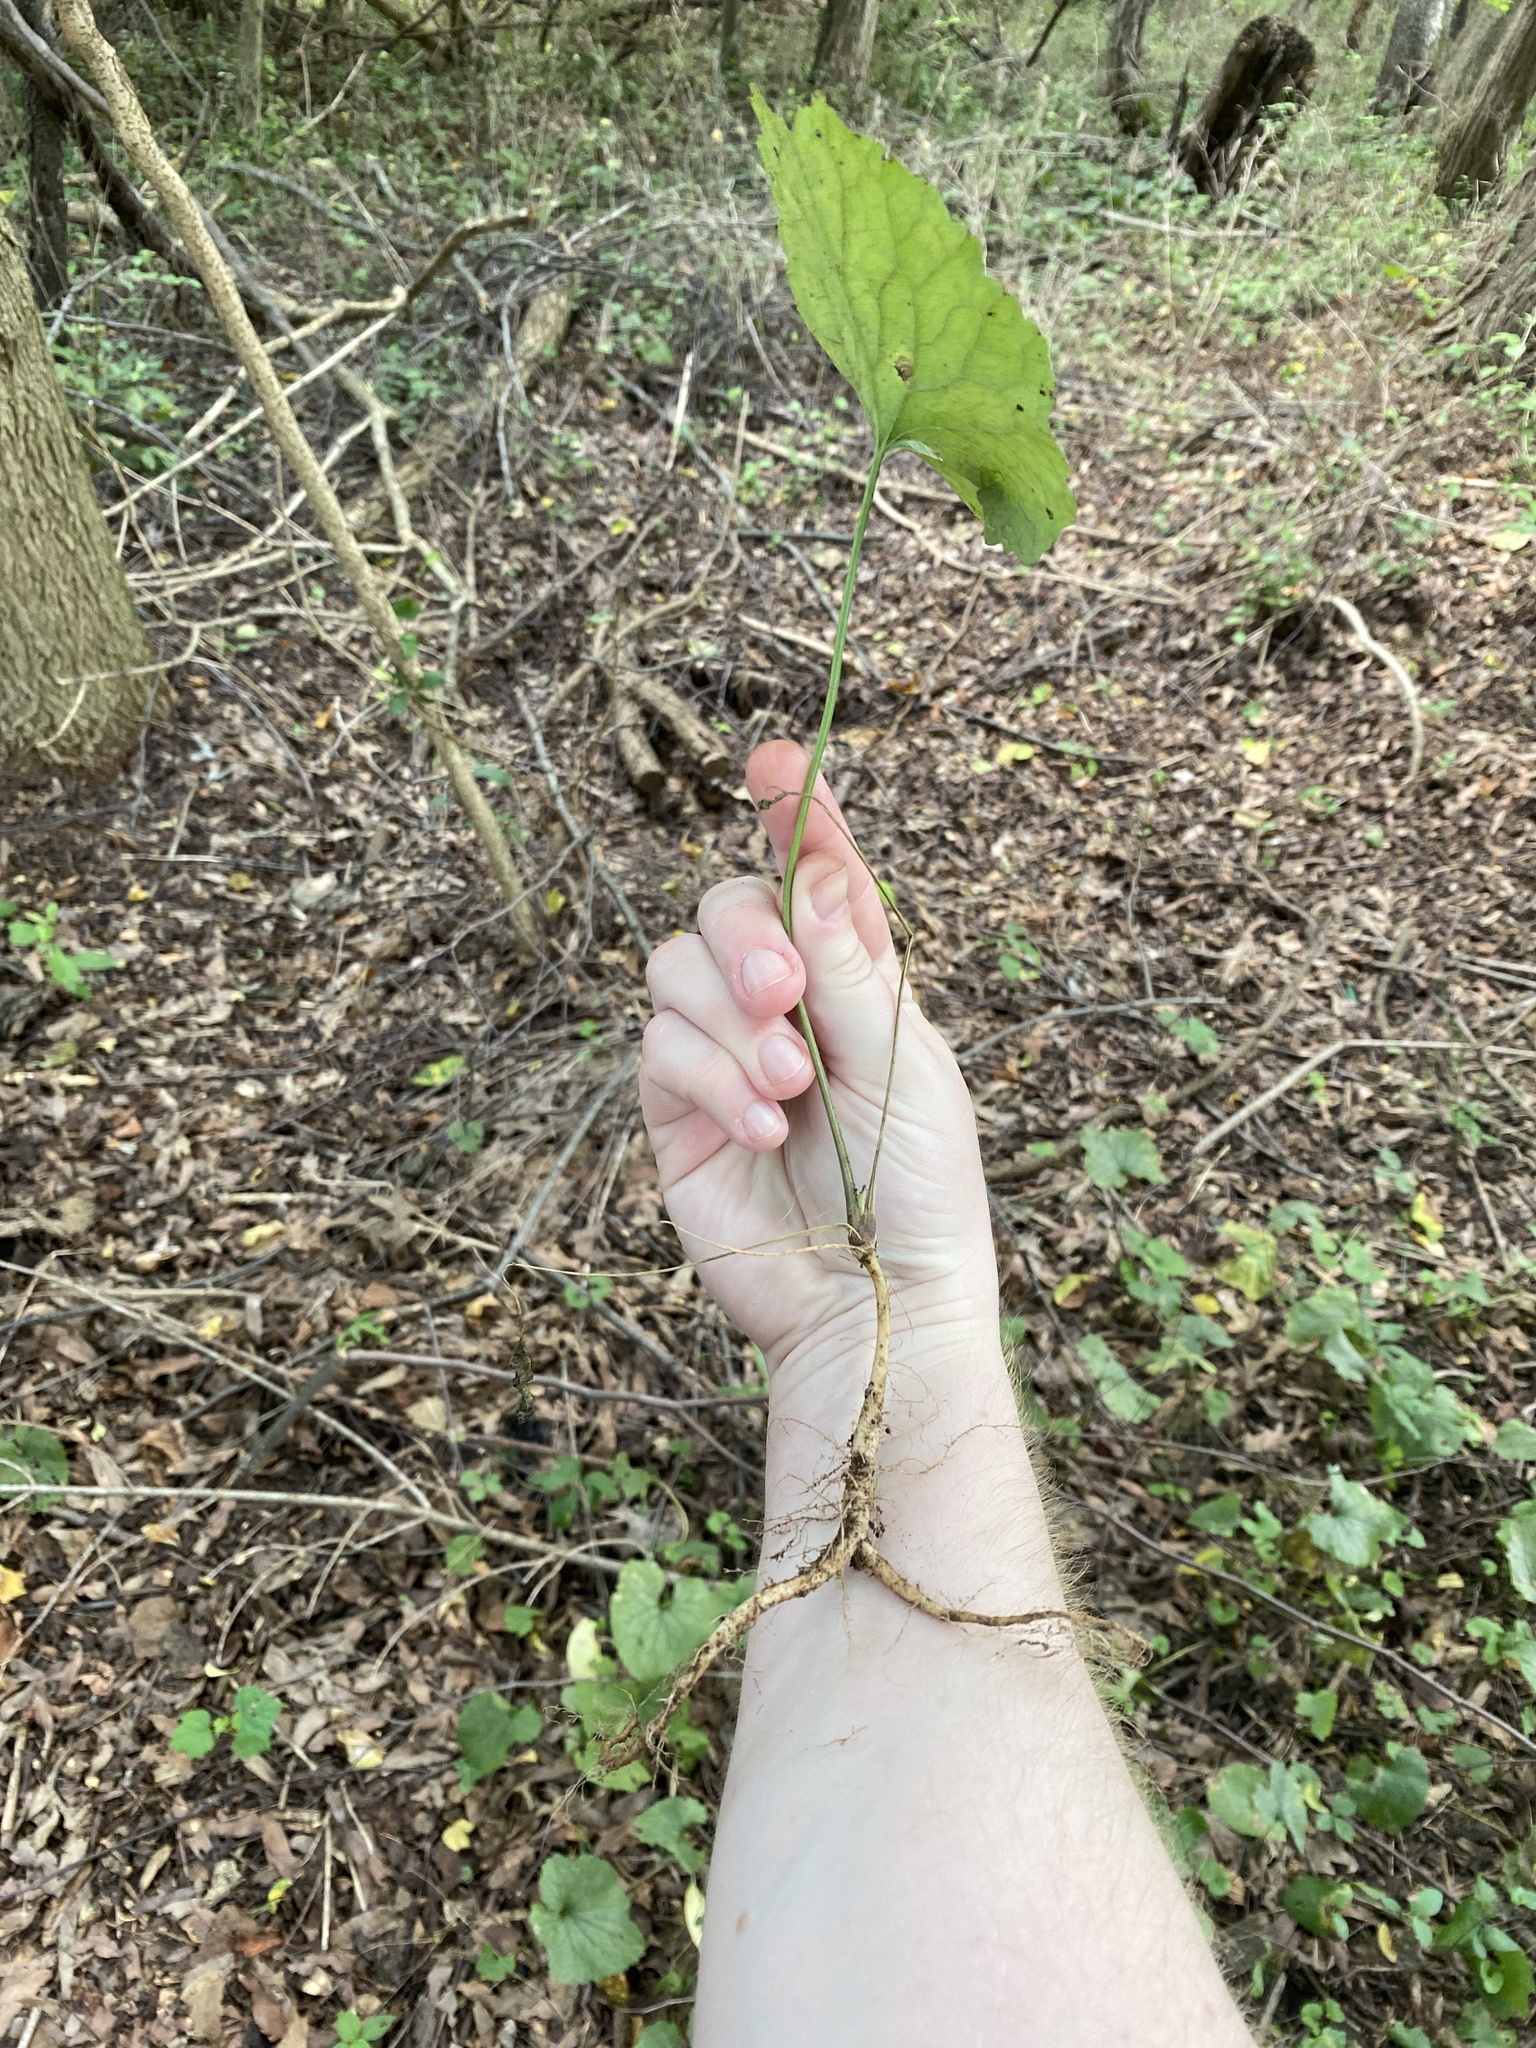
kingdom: Plantae
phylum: Tracheophyta
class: Magnoliopsida
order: Brassicales
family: Brassicaceae
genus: Alliaria
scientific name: Alliaria petiolata
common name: Garlic mustard
